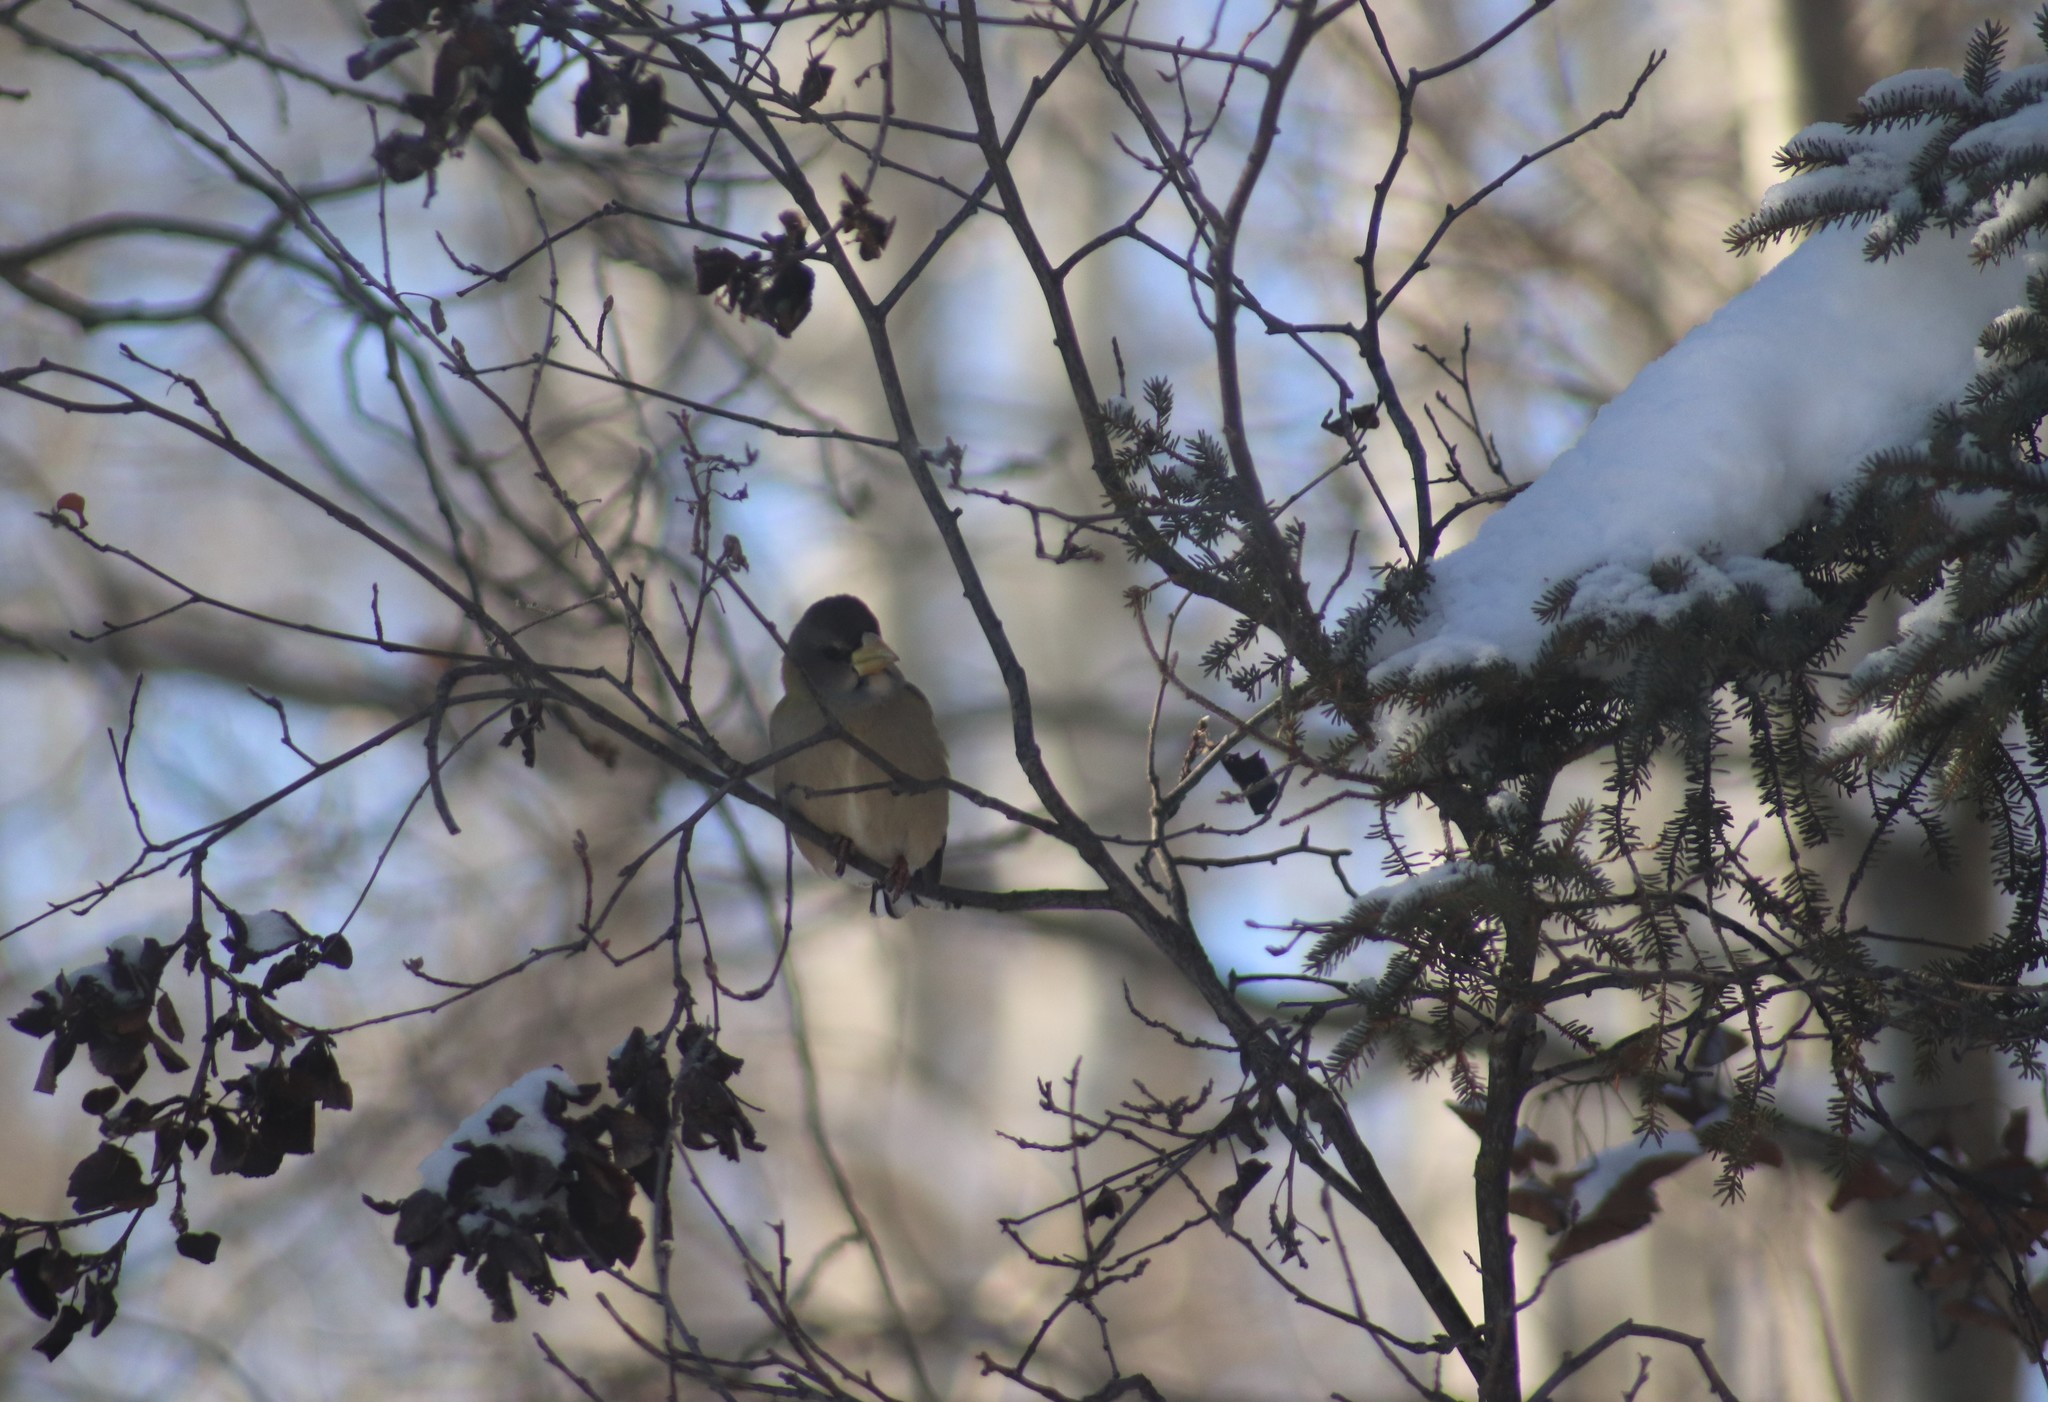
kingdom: Animalia
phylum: Chordata
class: Aves
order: Passeriformes
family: Fringillidae
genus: Hesperiphona
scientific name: Hesperiphona vespertina
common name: Evening grosbeak
